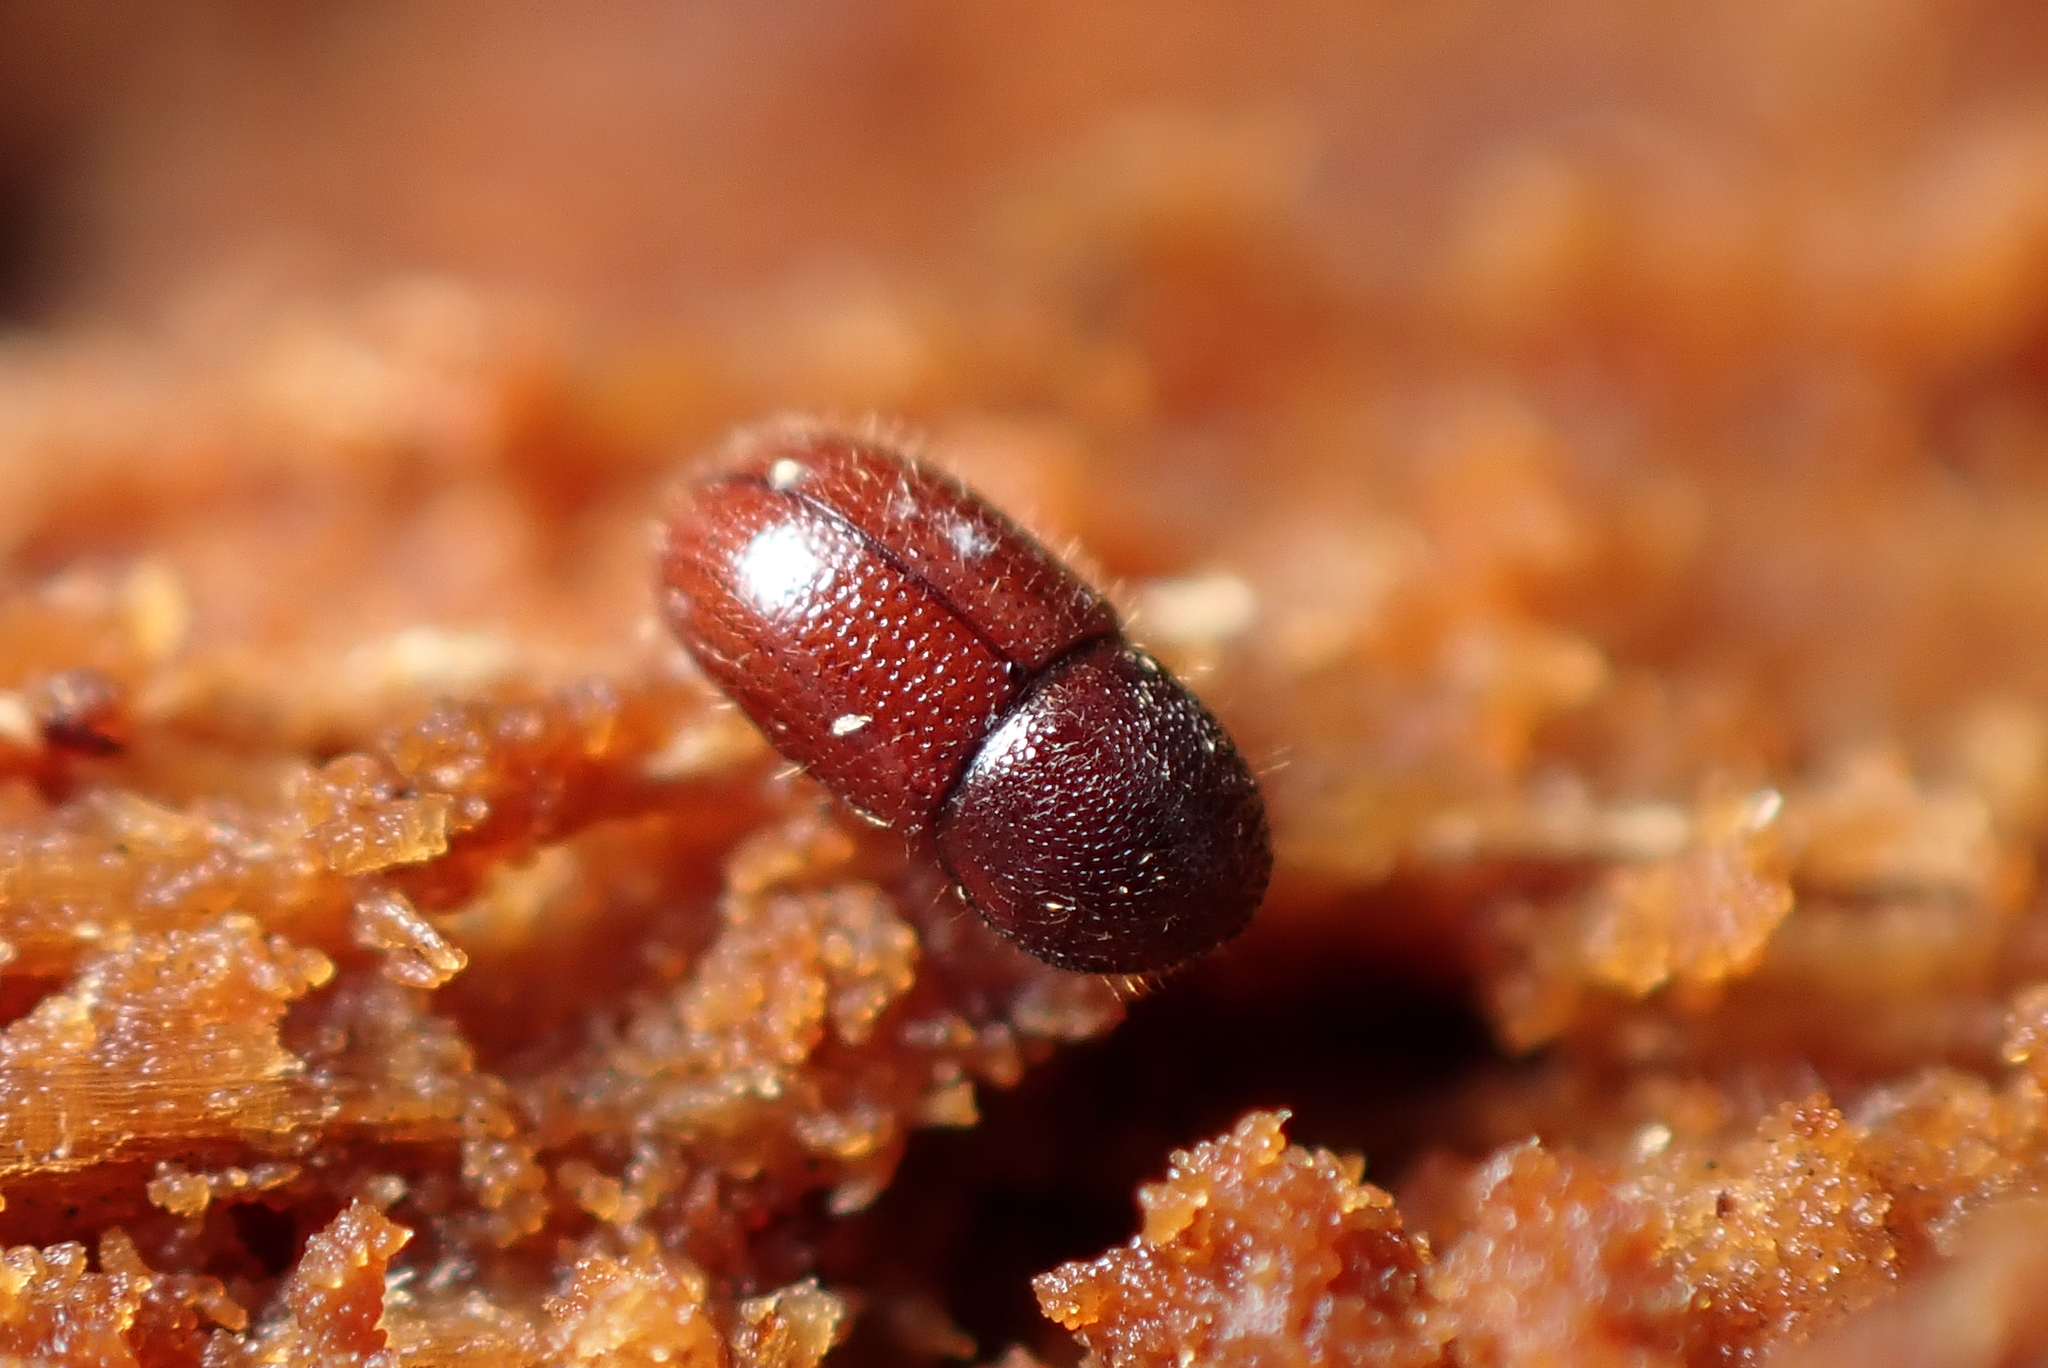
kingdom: Animalia
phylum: Arthropoda
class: Insecta
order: Coleoptera
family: Curculionidae
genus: Coccotrypes
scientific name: Coccotrypes dactyliperda
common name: Bark beetle
